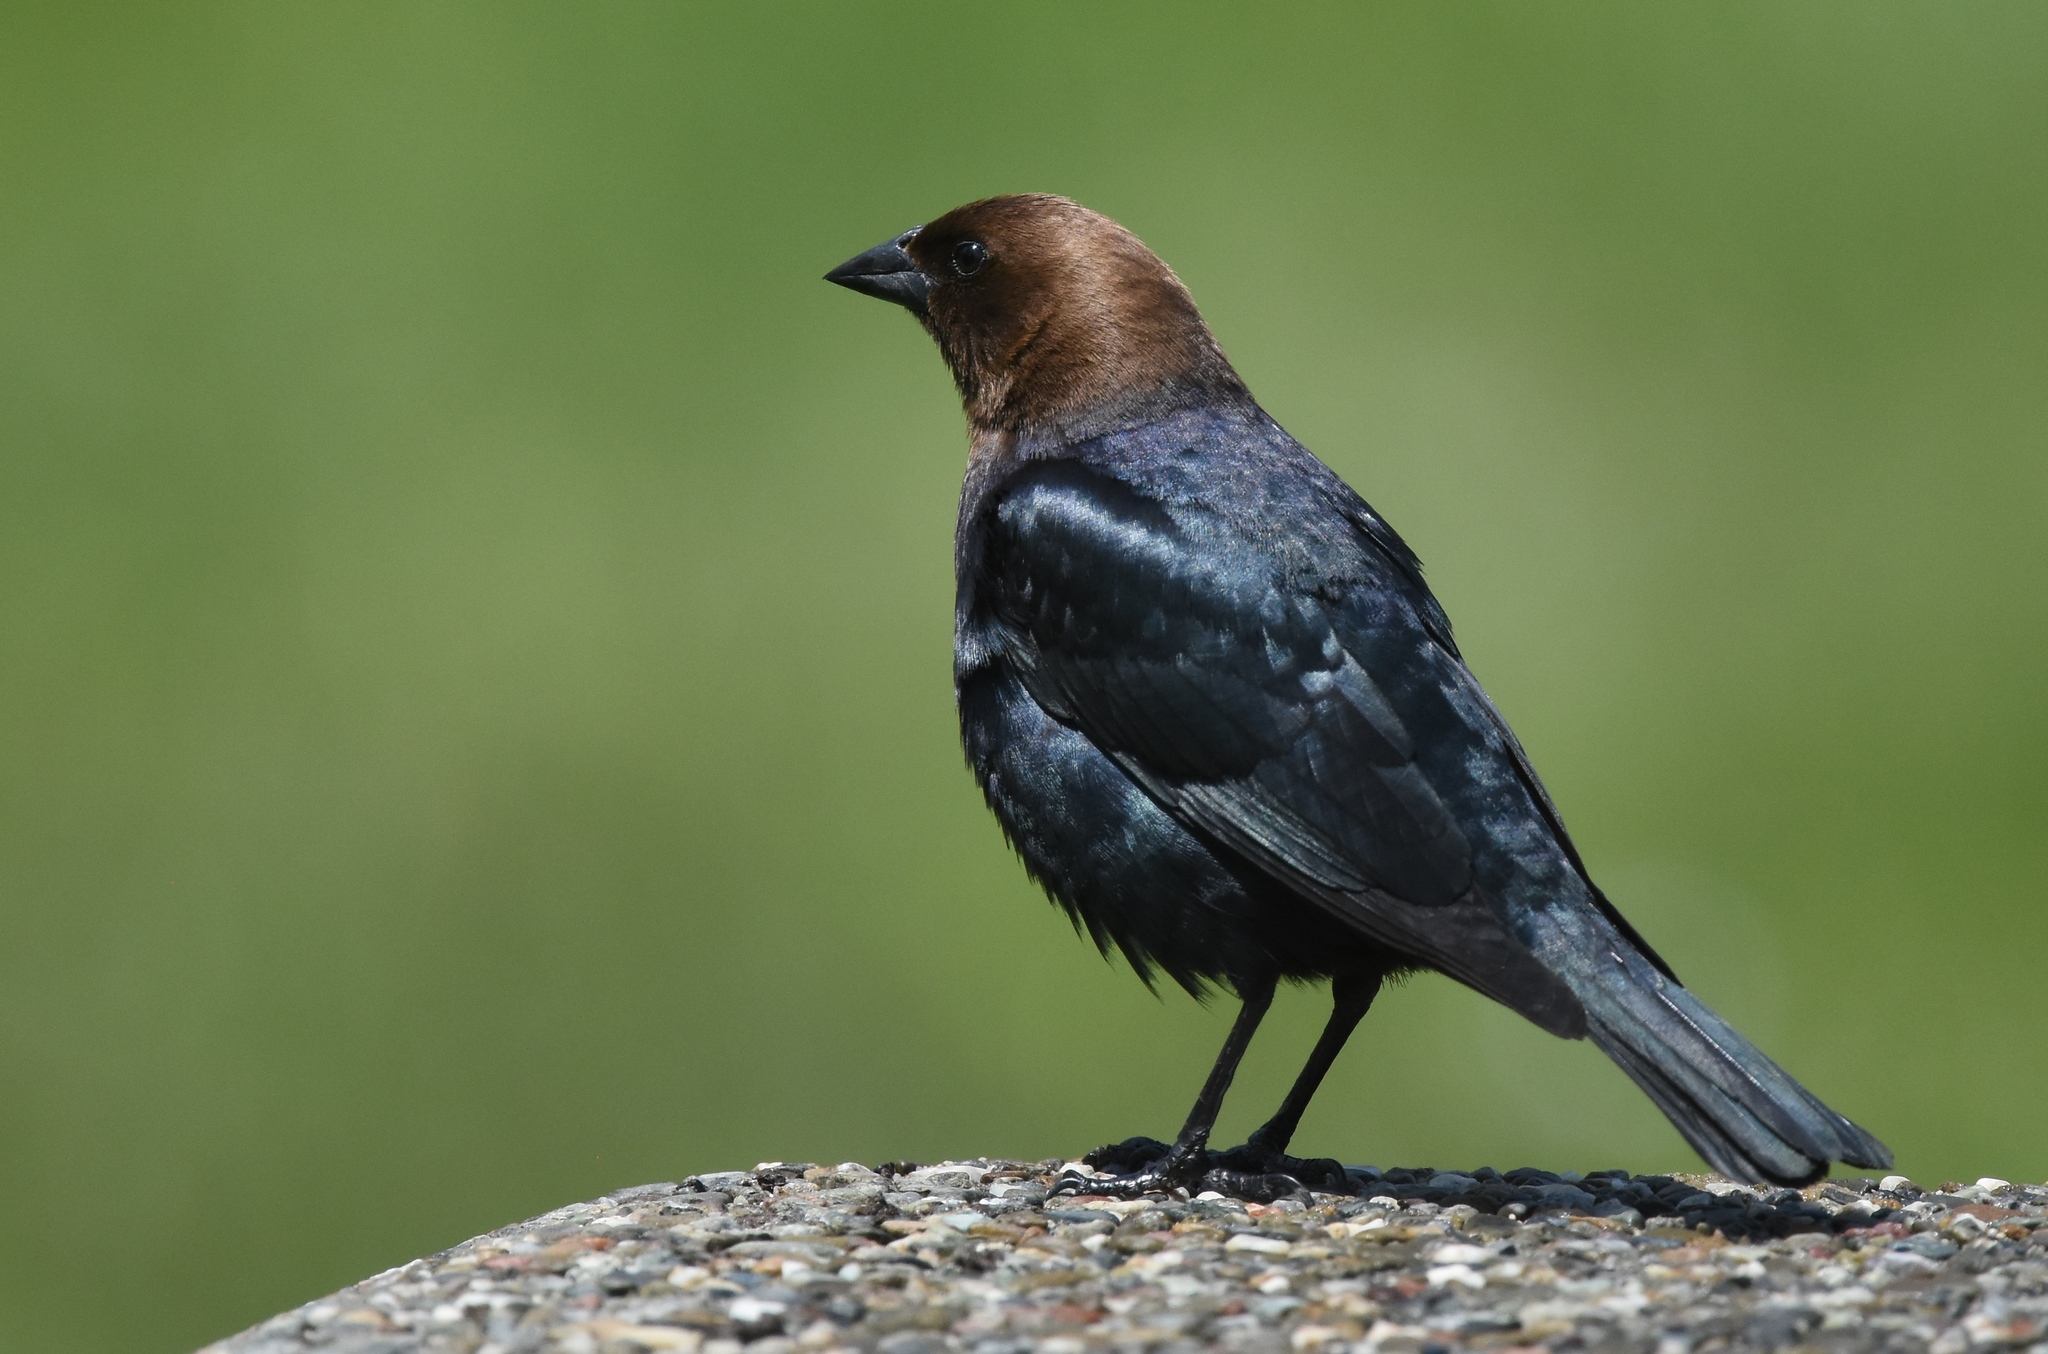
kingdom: Animalia
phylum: Chordata
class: Aves
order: Passeriformes
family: Icteridae
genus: Molothrus
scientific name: Molothrus ater
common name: Brown-headed cowbird
